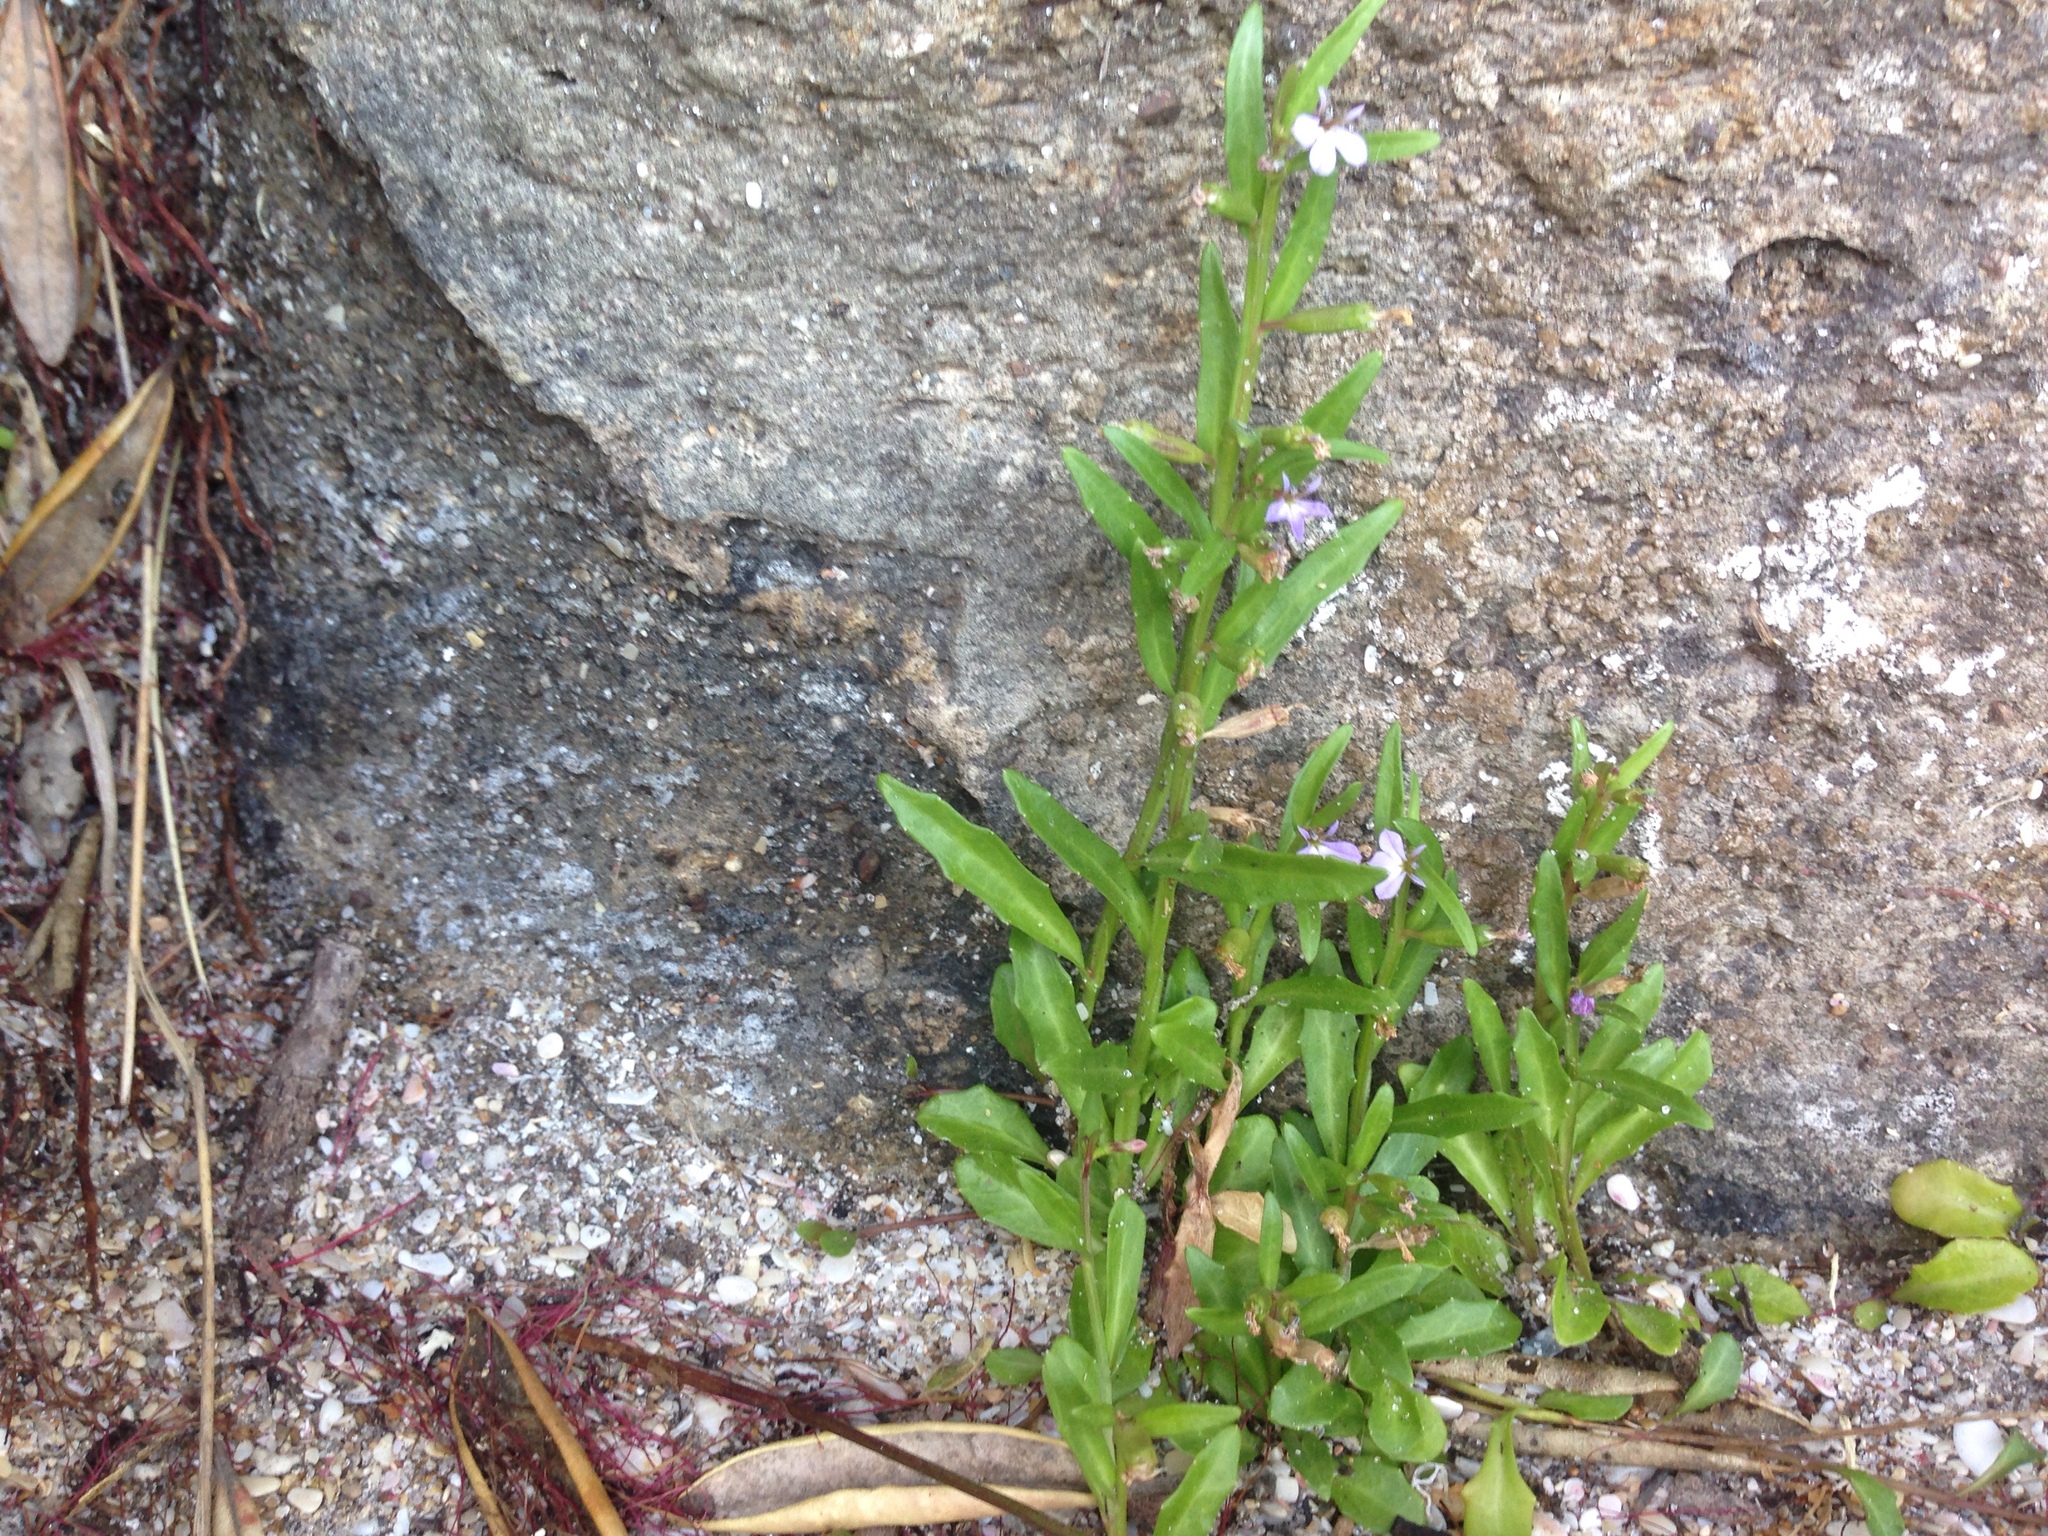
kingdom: Plantae
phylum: Tracheophyta
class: Magnoliopsida
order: Asterales
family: Campanulaceae
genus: Lobelia
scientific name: Lobelia anceps
